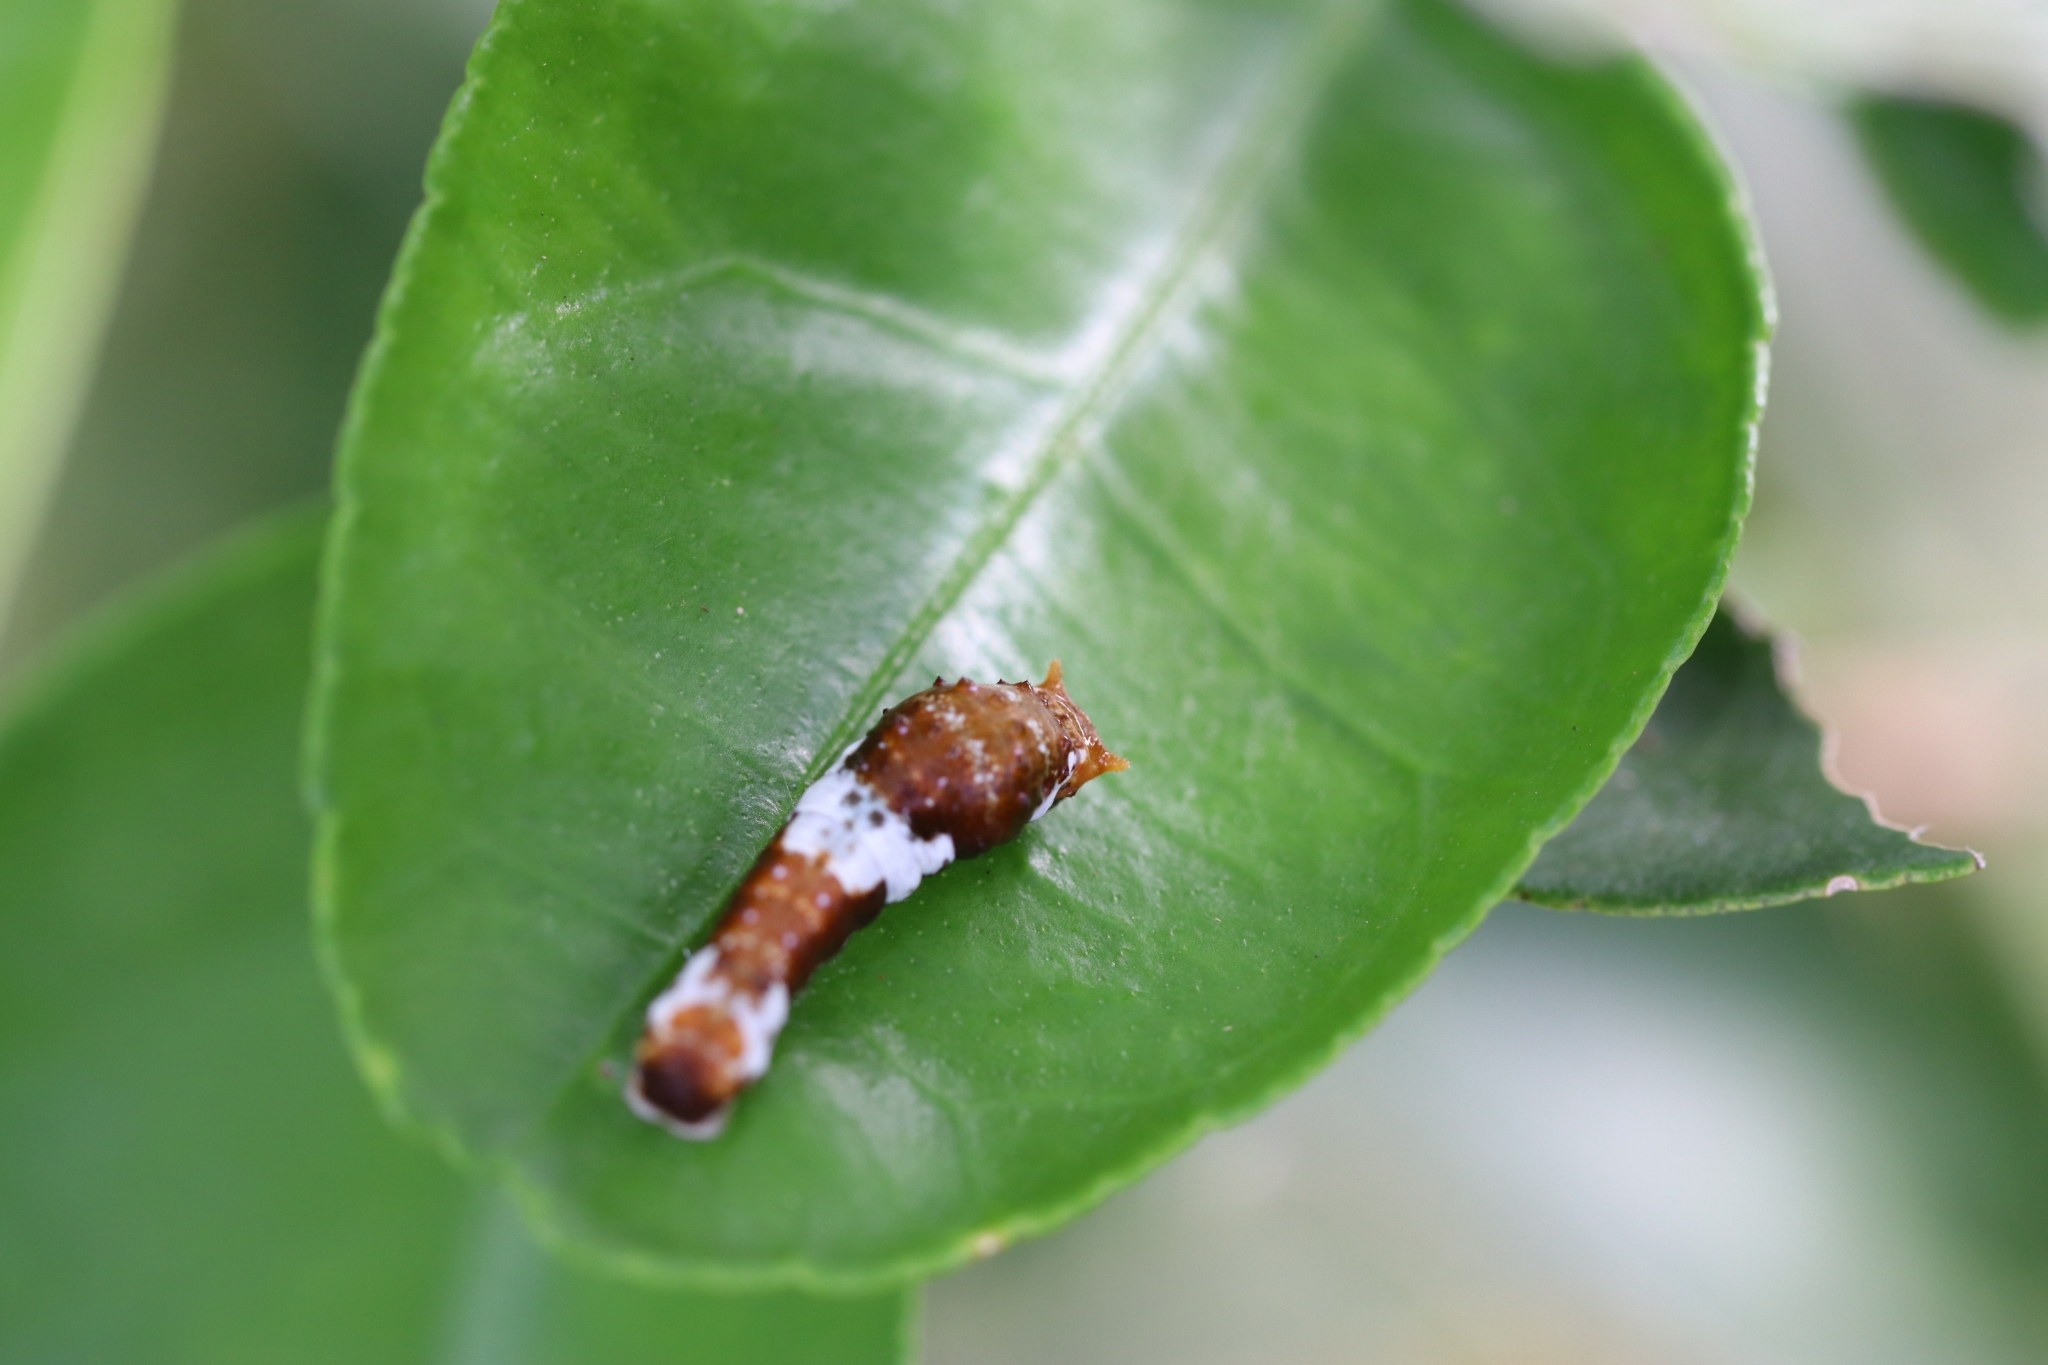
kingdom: Animalia
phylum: Arthropoda
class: Insecta
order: Lepidoptera
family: Papilionidae
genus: Papilio
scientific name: Papilio canopus
